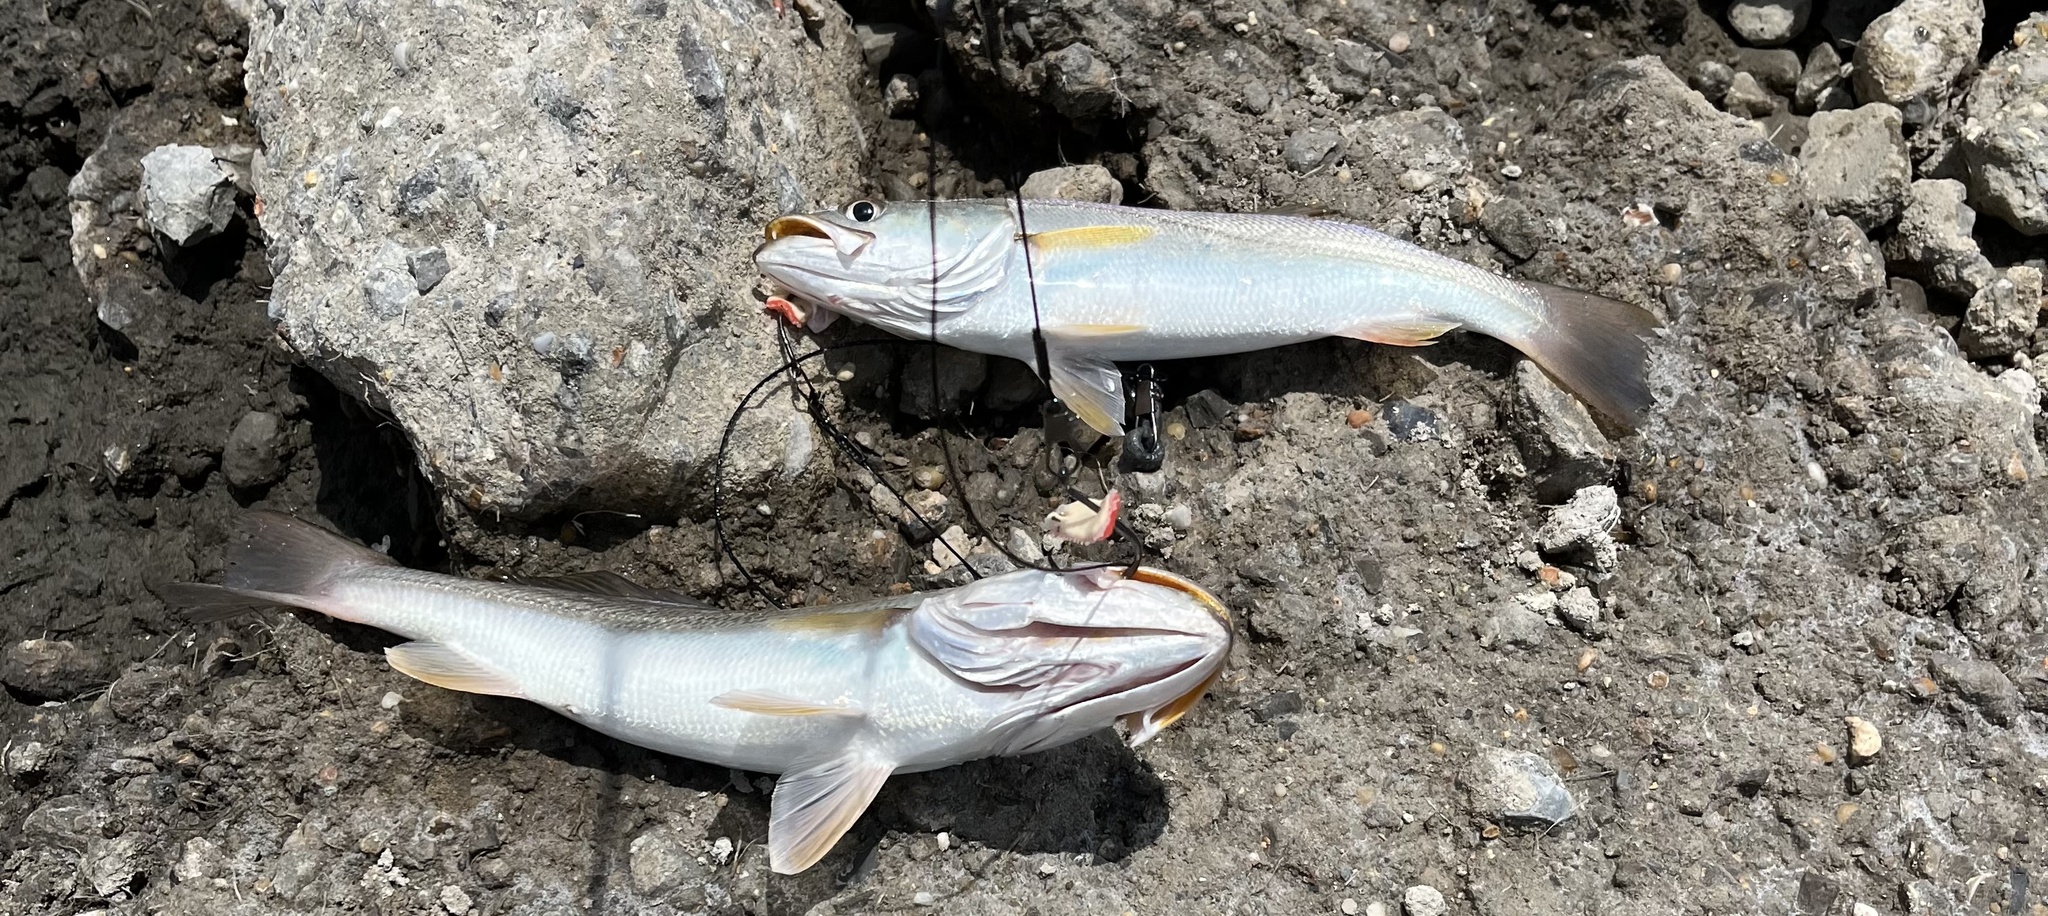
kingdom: Animalia
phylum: Chordata
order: Perciformes
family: Sciaenidae
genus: Cynoscion
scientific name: Cynoscion arenarius
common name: Sand seatrout
